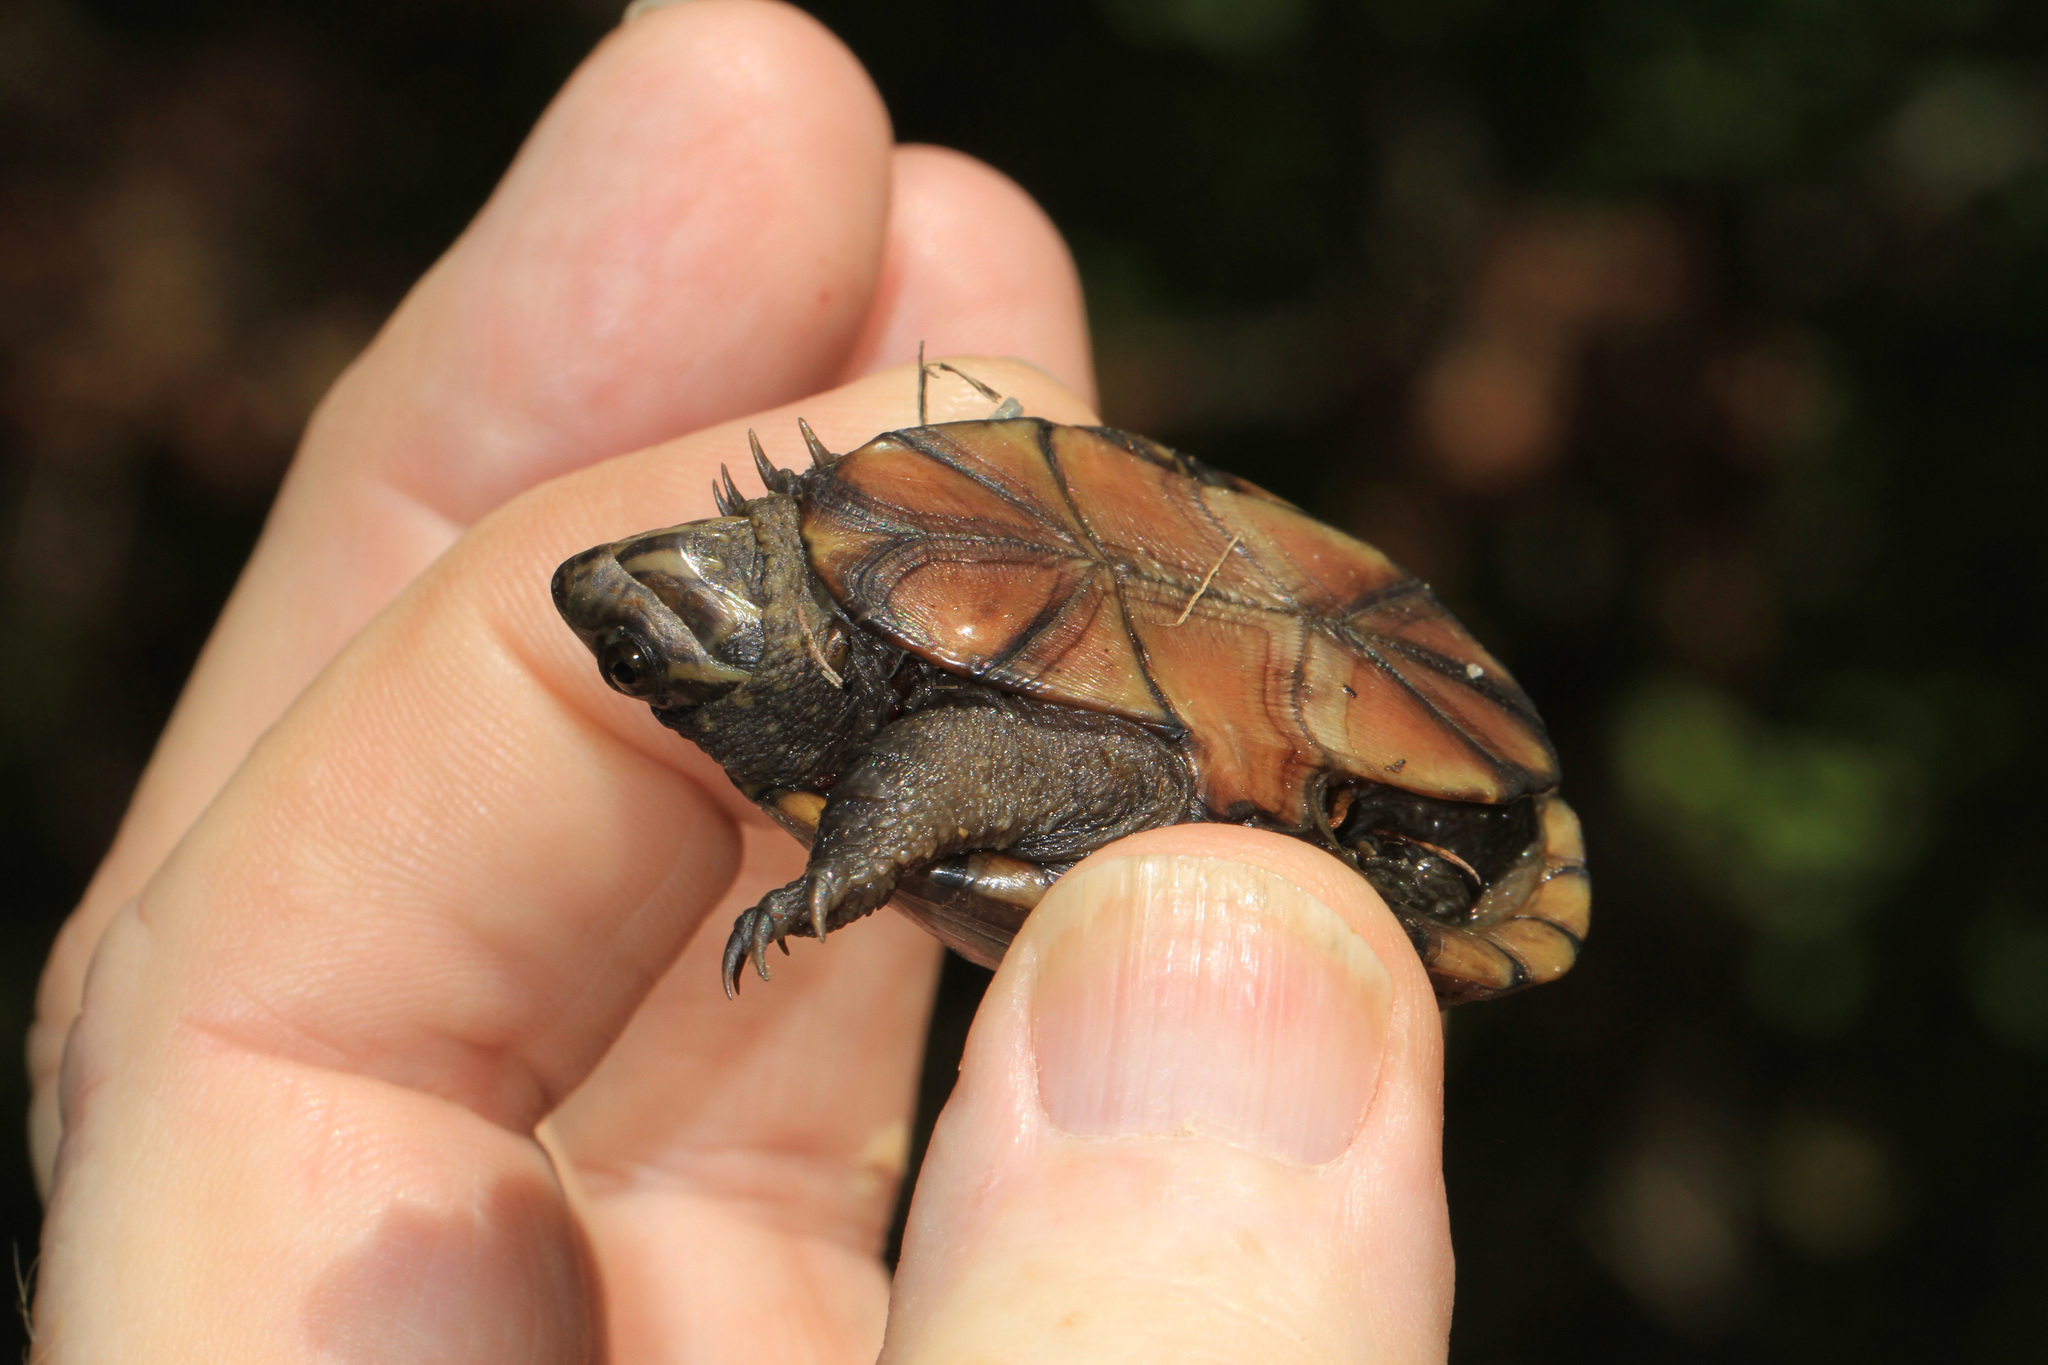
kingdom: Animalia
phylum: Chordata
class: Testudines
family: Kinosternidae
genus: Kinosternon
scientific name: Kinosternon subrubrum
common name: Eastern mud turtle
